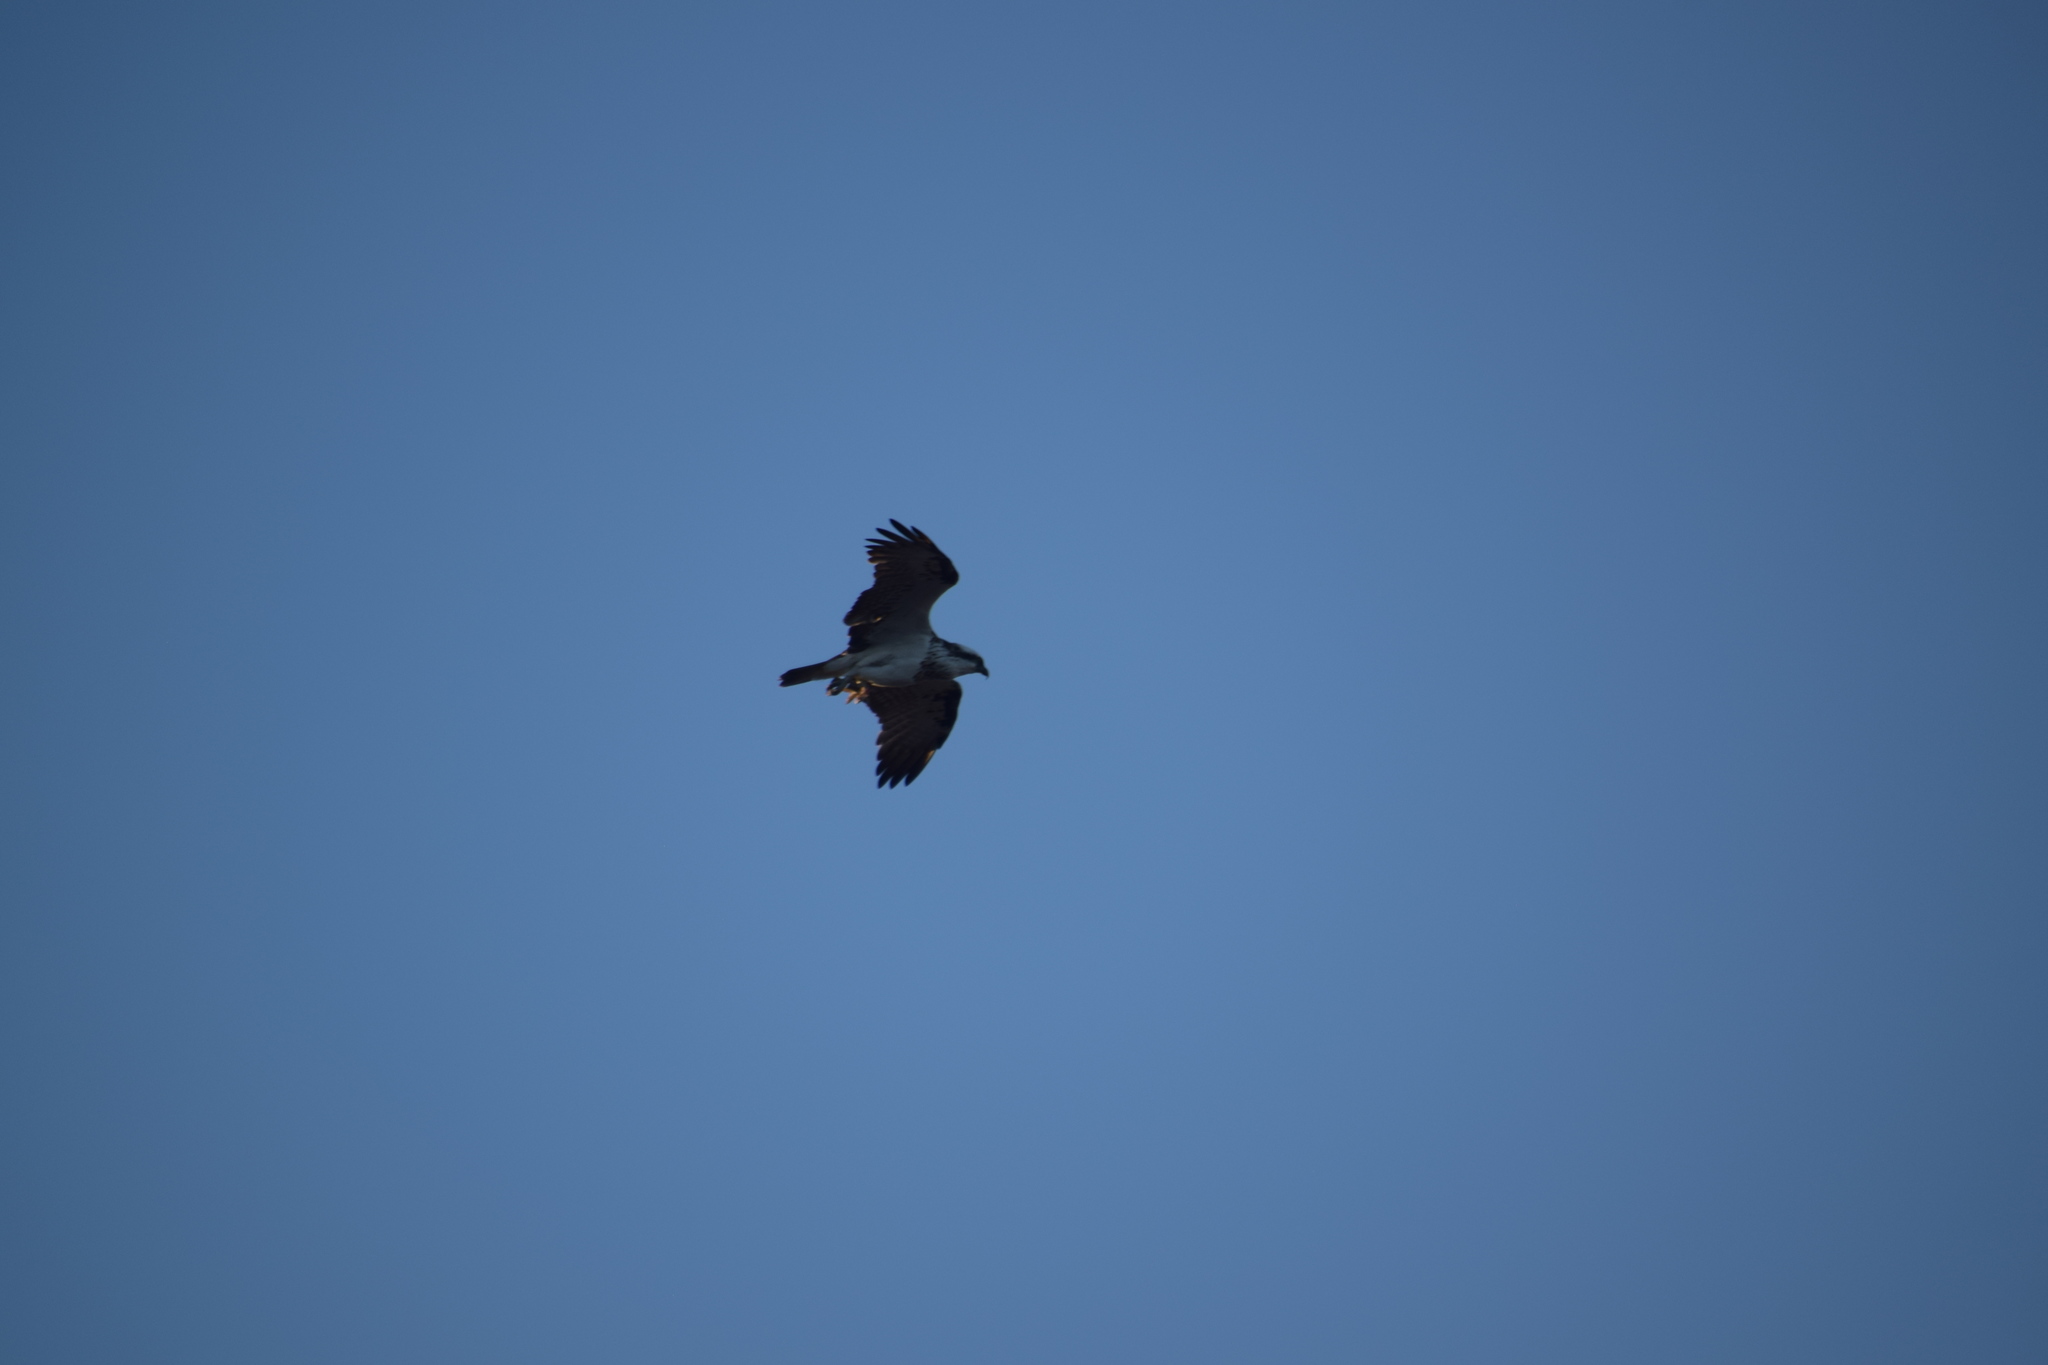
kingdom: Animalia
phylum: Chordata
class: Aves
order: Accipitriformes
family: Pandionidae
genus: Pandion
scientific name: Pandion cristatus
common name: Eastern osprey
